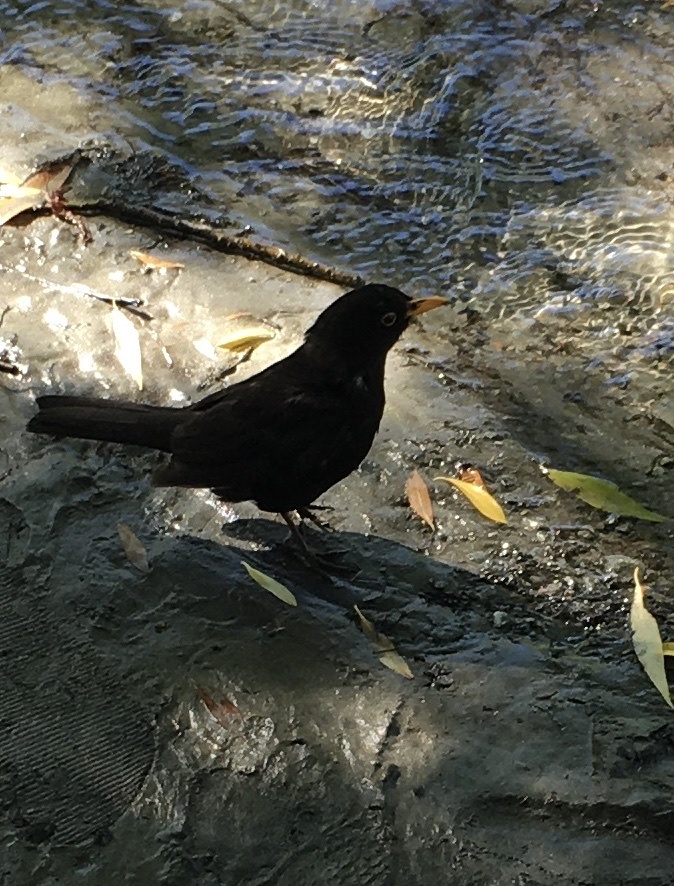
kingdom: Animalia
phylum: Chordata
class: Aves
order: Passeriformes
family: Turdidae
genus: Turdus
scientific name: Turdus merula
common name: Common blackbird
